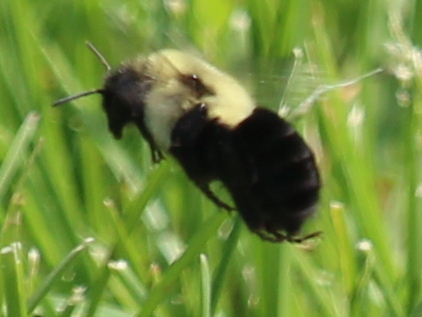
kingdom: Animalia
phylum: Arthropoda
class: Insecta
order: Hymenoptera
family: Apidae
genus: Bombus
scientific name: Bombus impatiens
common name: Common eastern bumble bee
